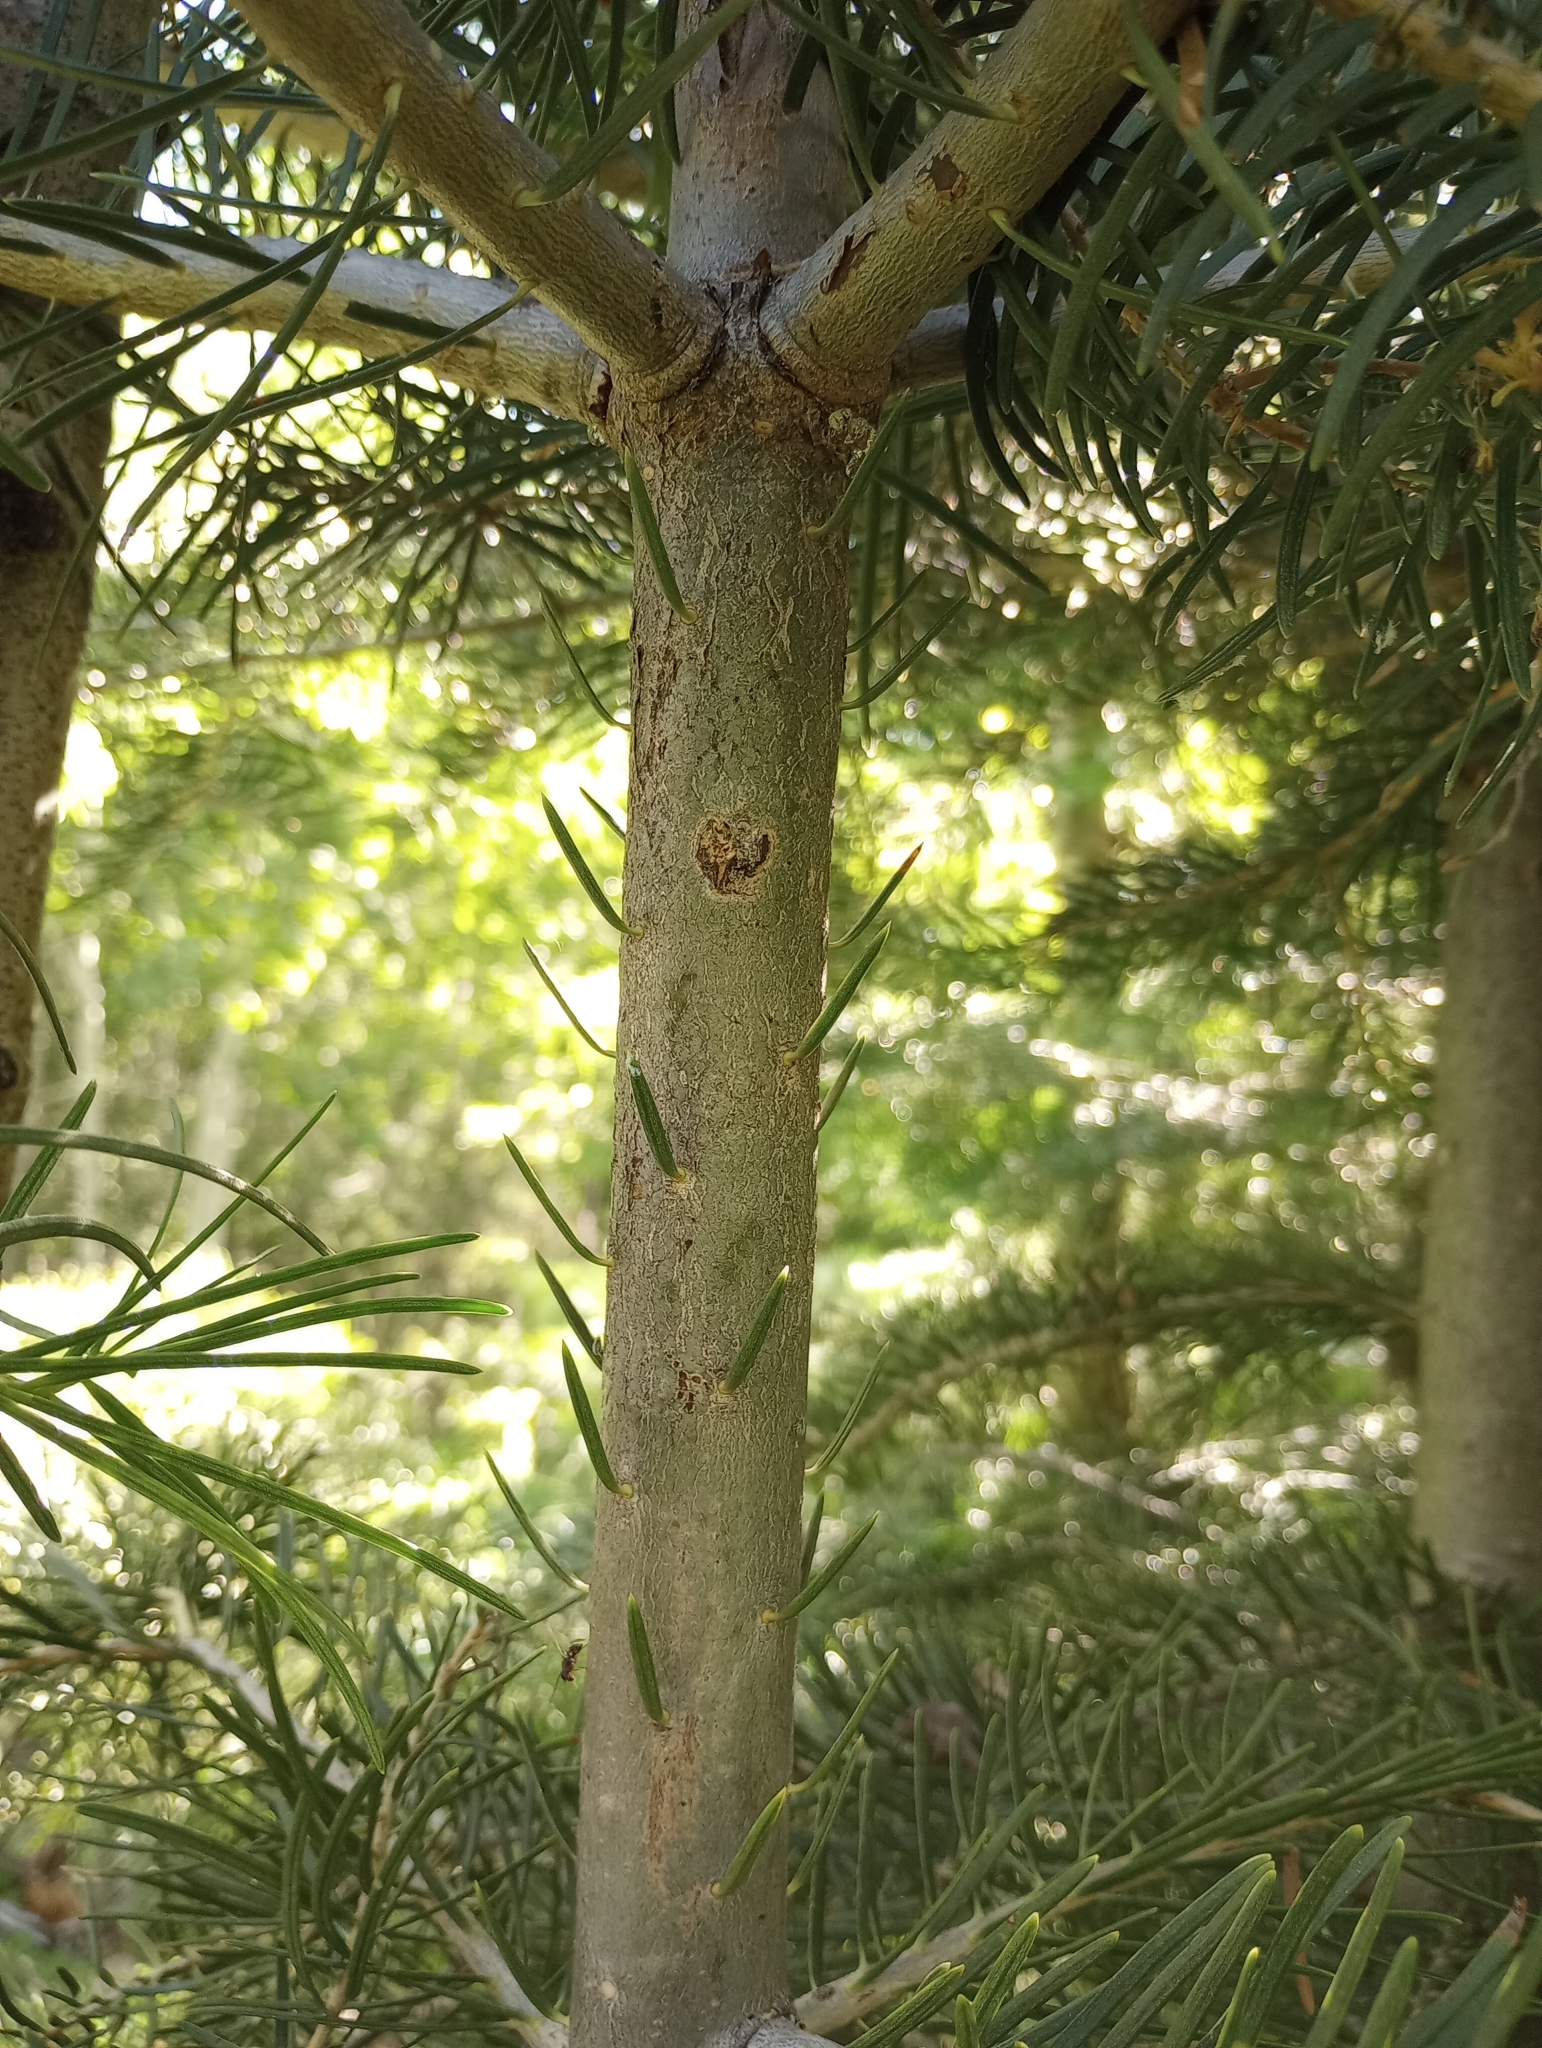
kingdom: Plantae
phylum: Tracheophyta
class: Pinopsida
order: Pinales
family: Pinaceae
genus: Abies
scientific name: Abies concolor
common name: Colorado fir
